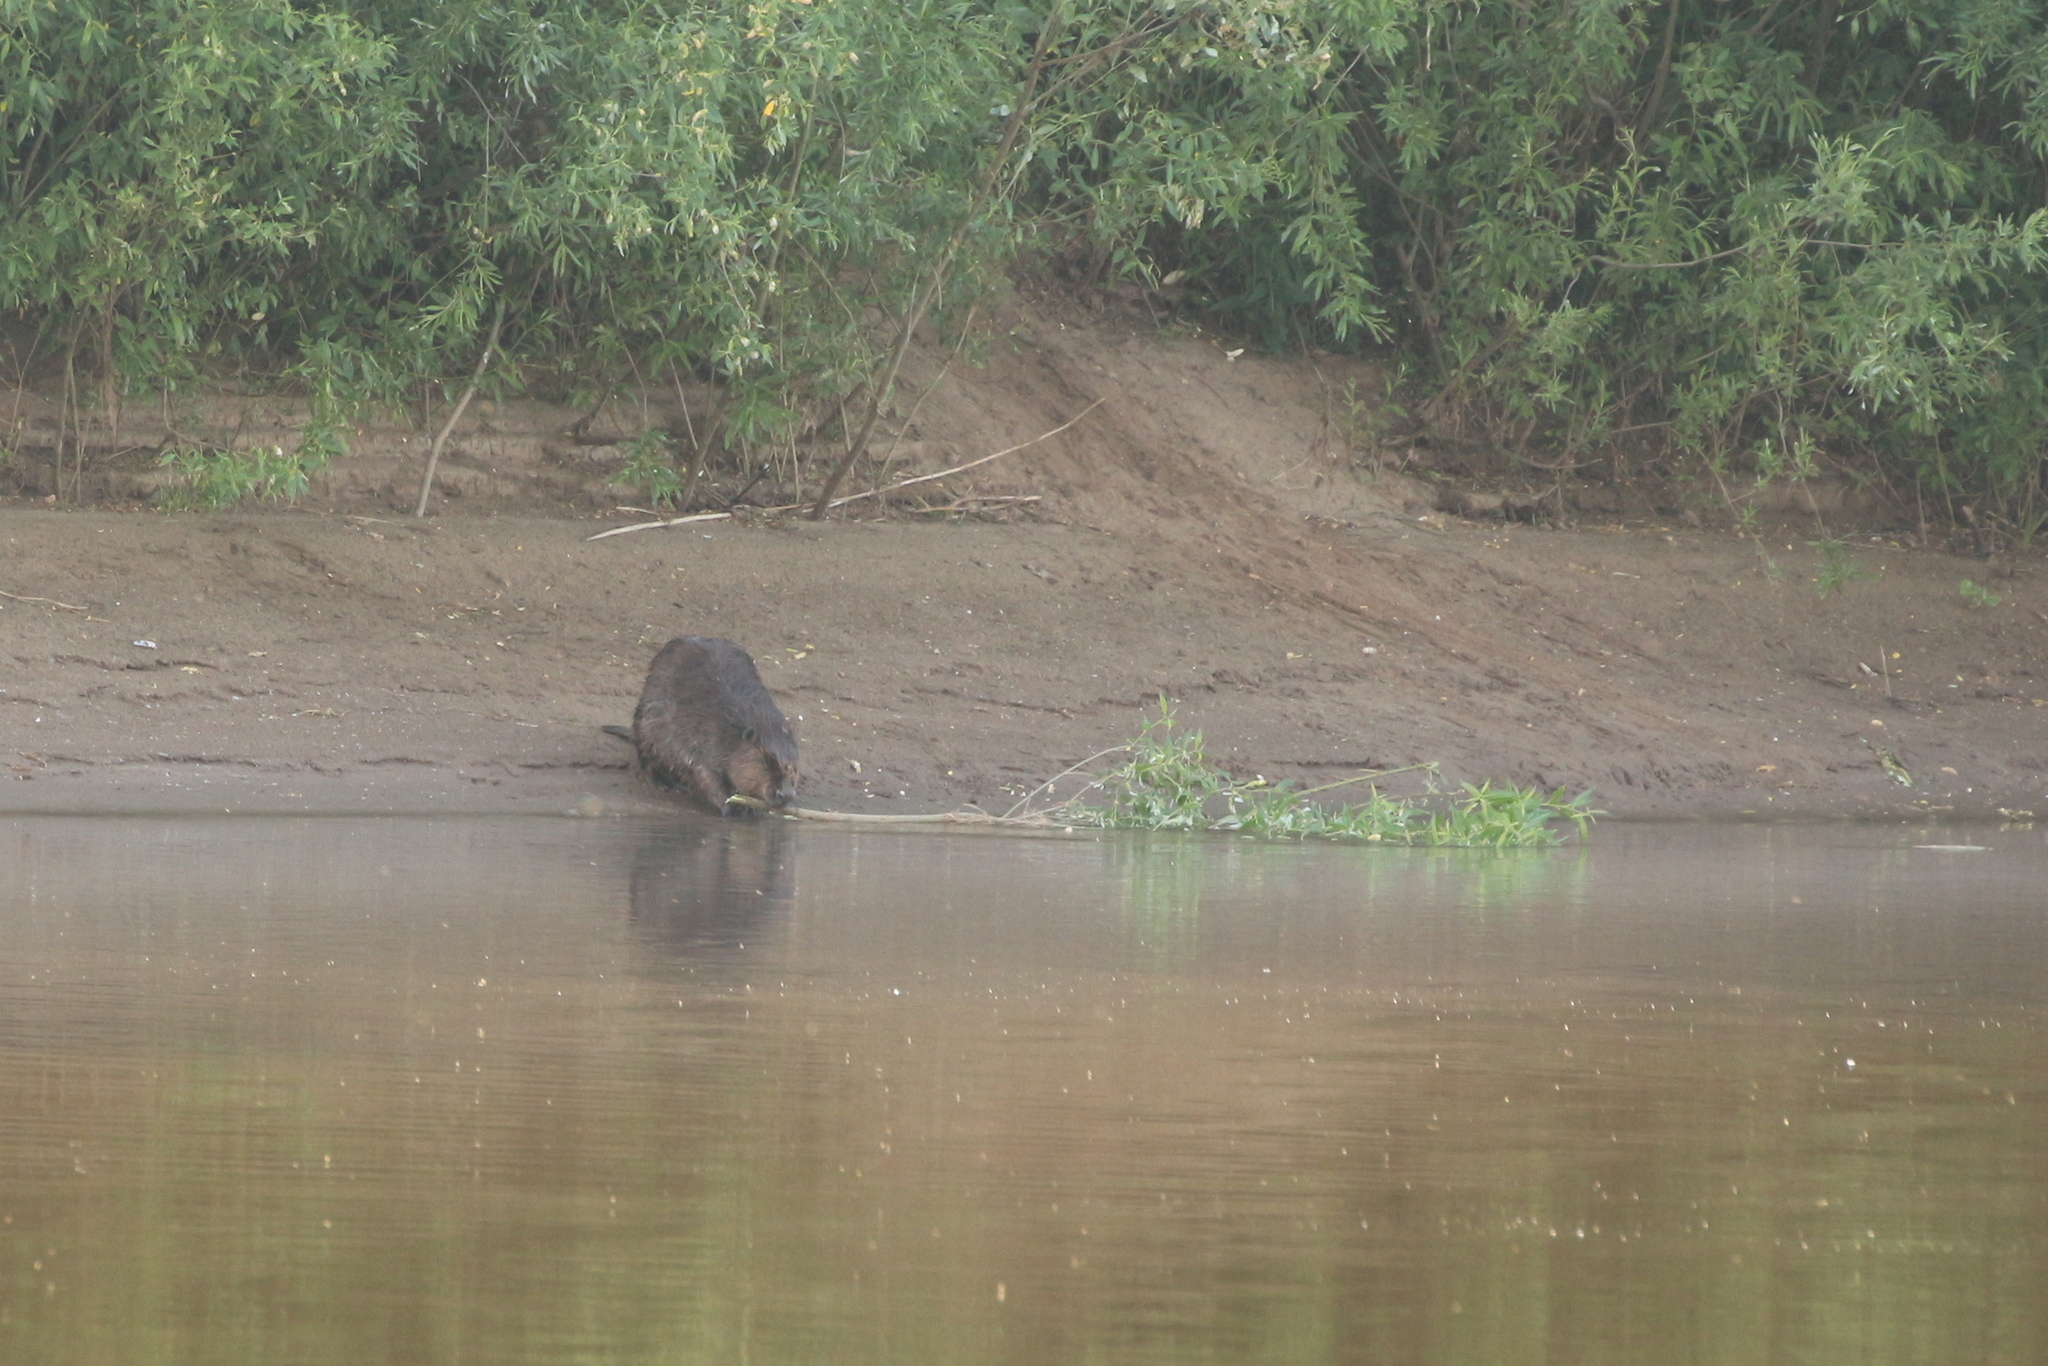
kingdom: Animalia
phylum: Chordata
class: Mammalia
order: Rodentia
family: Castoridae
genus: Castor
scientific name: Castor fiber
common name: Eurasian beaver
